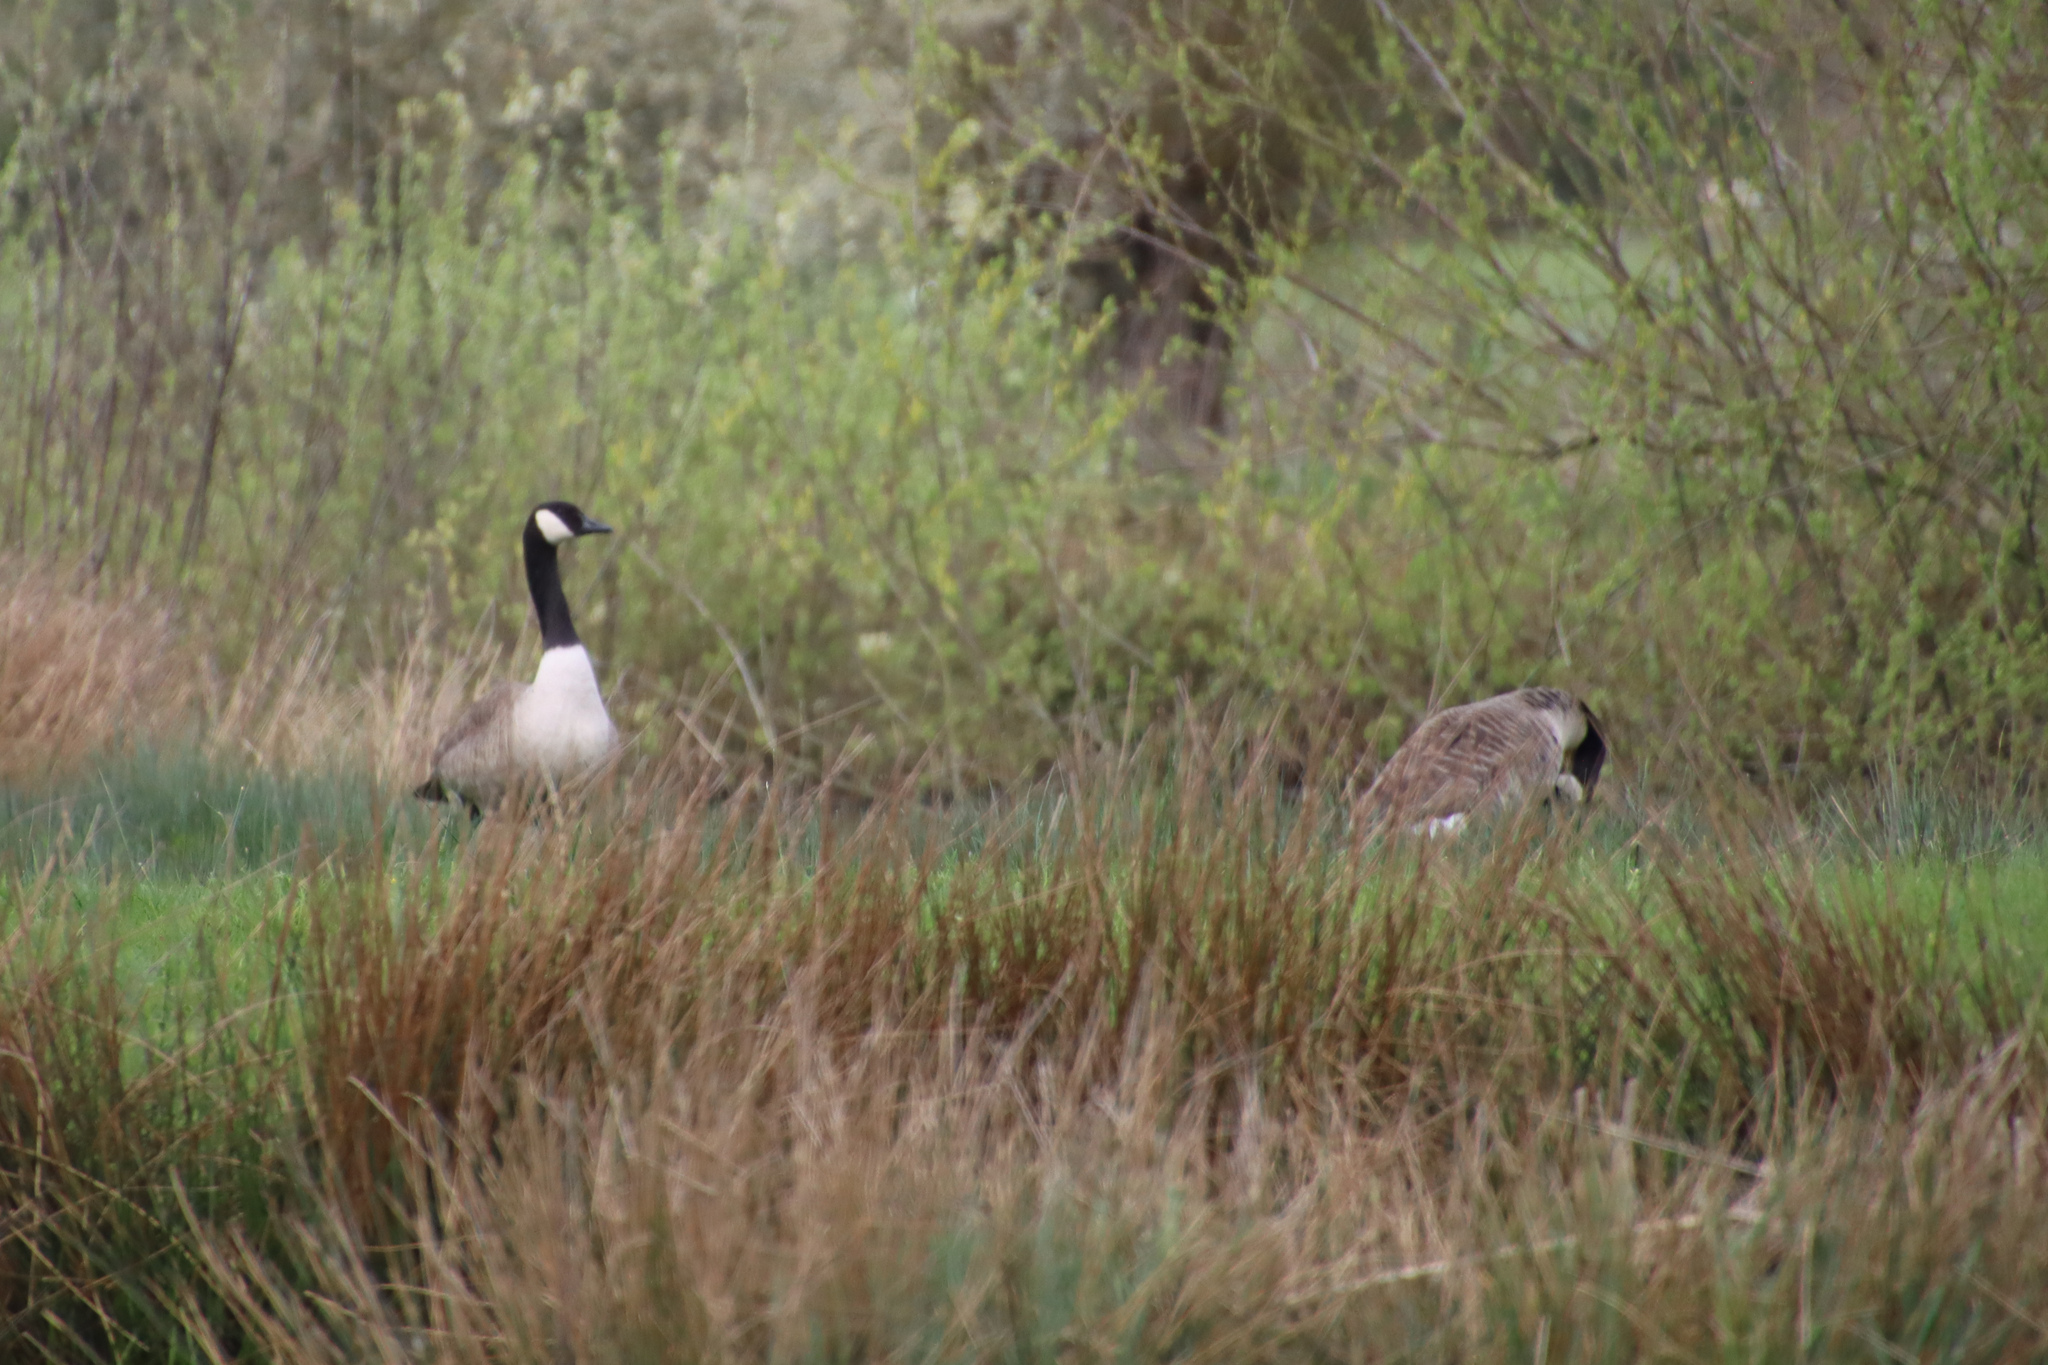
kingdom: Animalia
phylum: Chordata
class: Aves
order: Anseriformes
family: Anatidae
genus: Branta
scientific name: Branta canadensis
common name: Canada goose
